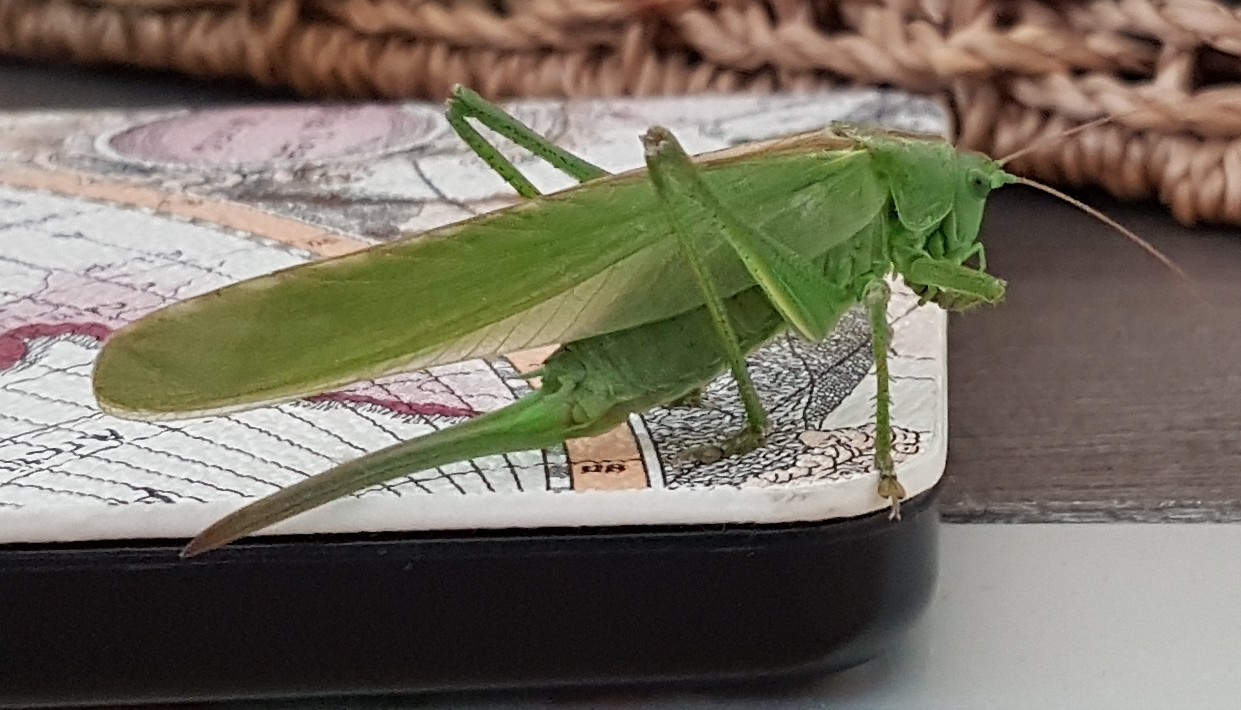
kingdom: Animalia
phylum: Arthropoda
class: Insecta
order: Orthoptera
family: Tettigoniidae
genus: Tettigonia
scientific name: Tettigonia viridissima
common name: Great green bush-cricket
